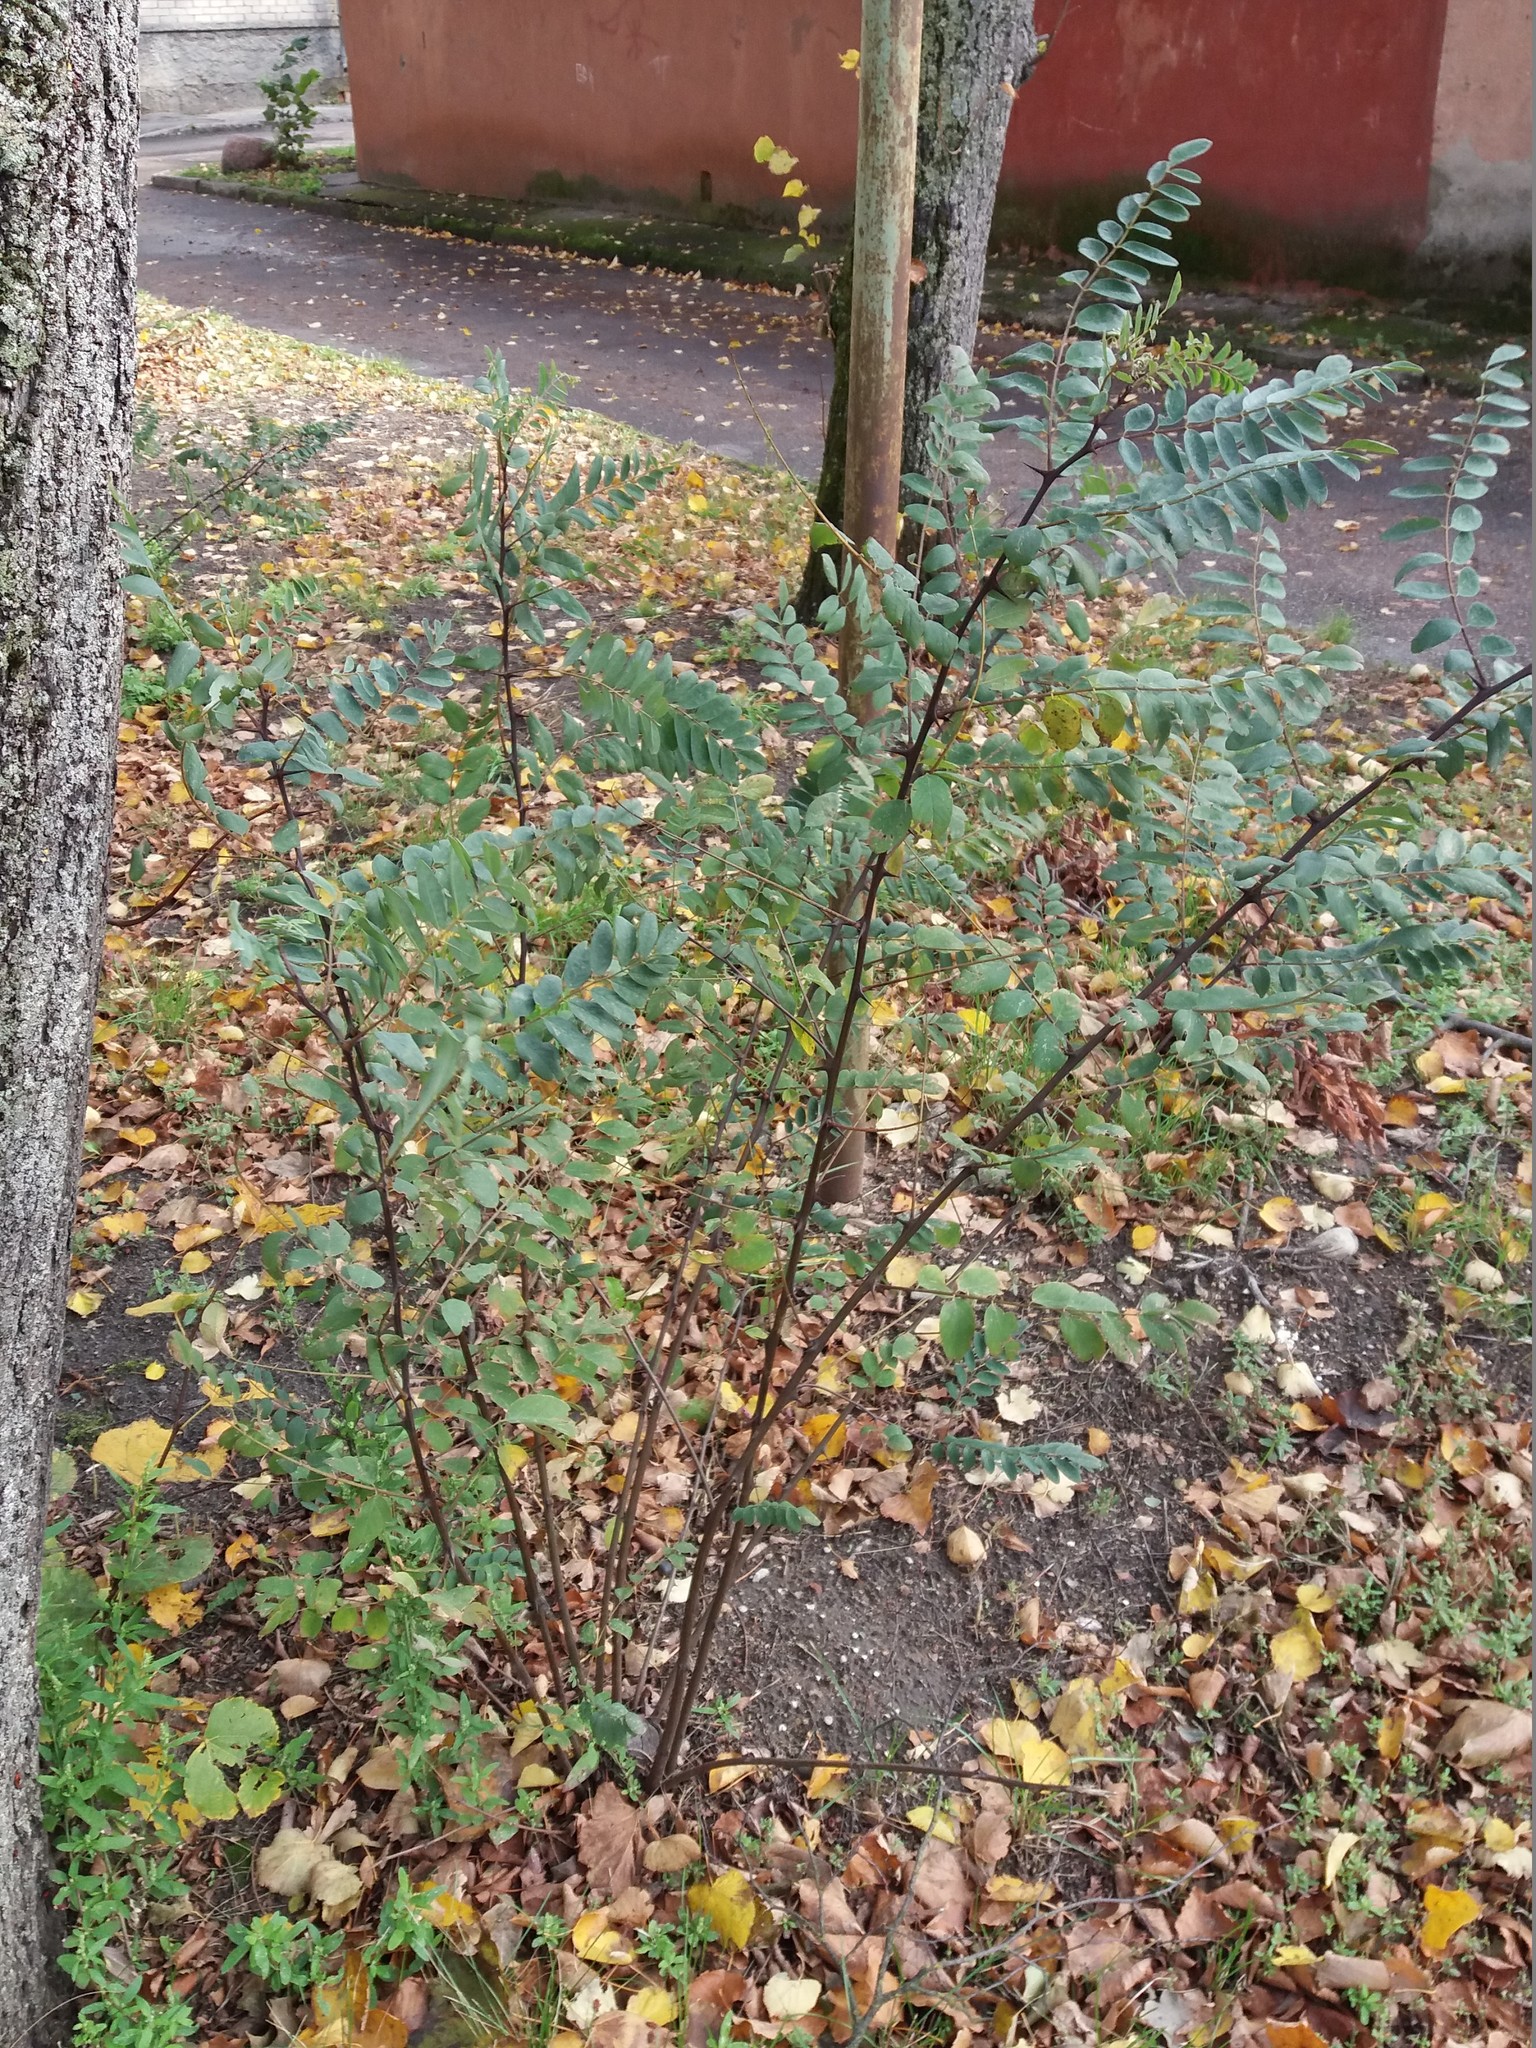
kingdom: Plantae
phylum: Tracheophyta
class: Magnoliopsida
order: Fabales
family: Fabaceae
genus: Robinia
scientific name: Robinia pseudoacacia
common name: Black locust
